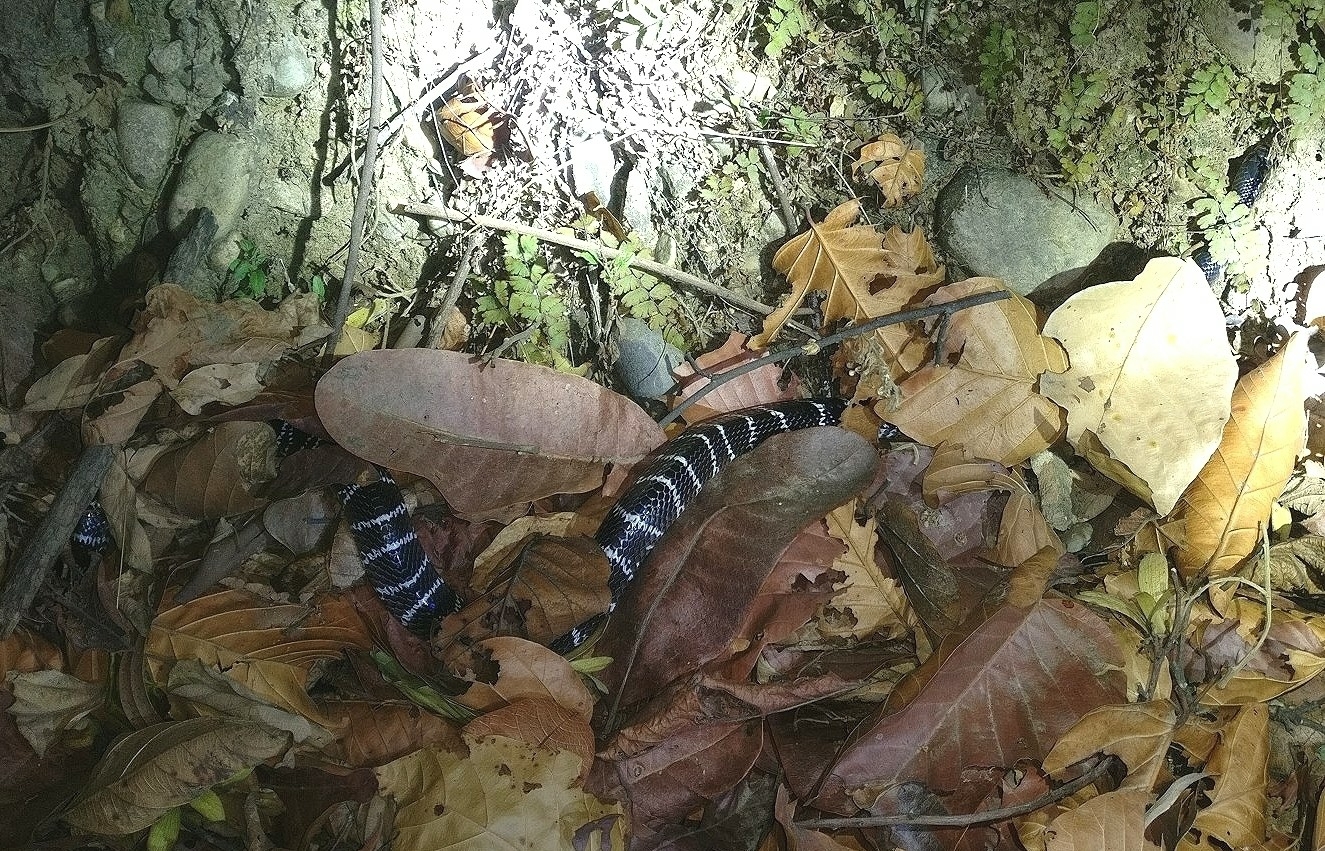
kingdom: Animalia
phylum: Chordata
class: Squamata
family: Elapidae
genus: Bungarus
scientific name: Bungarus caeruleus
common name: Common krait
